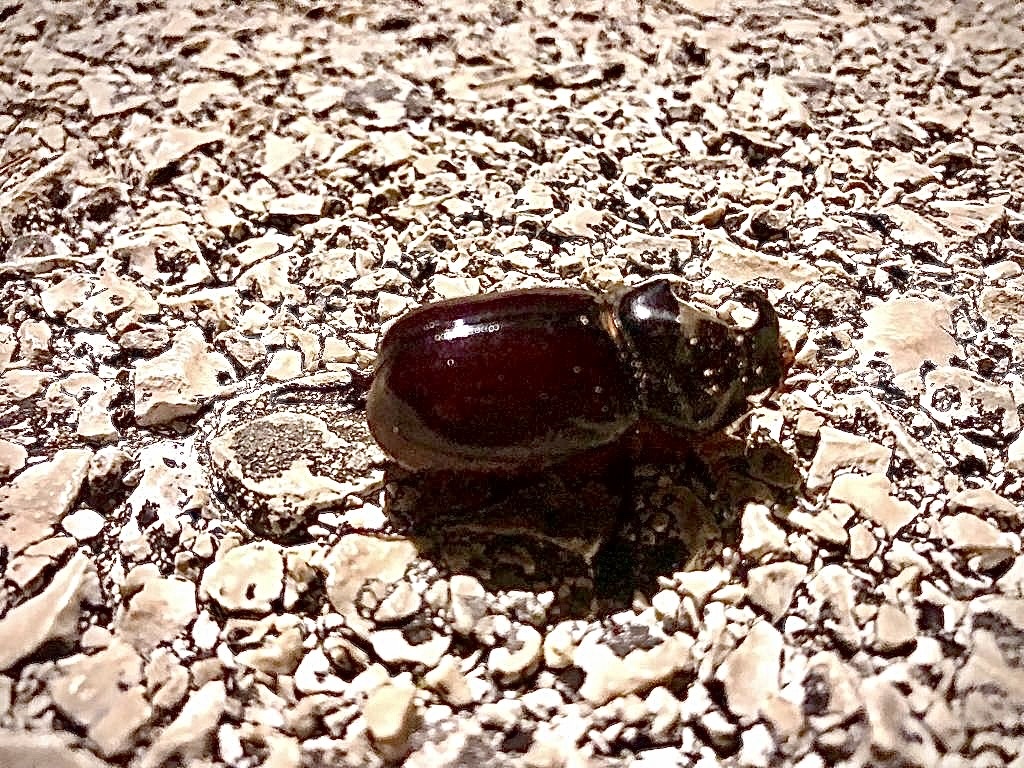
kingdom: Animalia
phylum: Arthropoda
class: Insecta
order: Coleoptera
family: Scarabaeidae
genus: Oryctes
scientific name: Oryctes nasicornis
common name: European rhinoceros beetle
